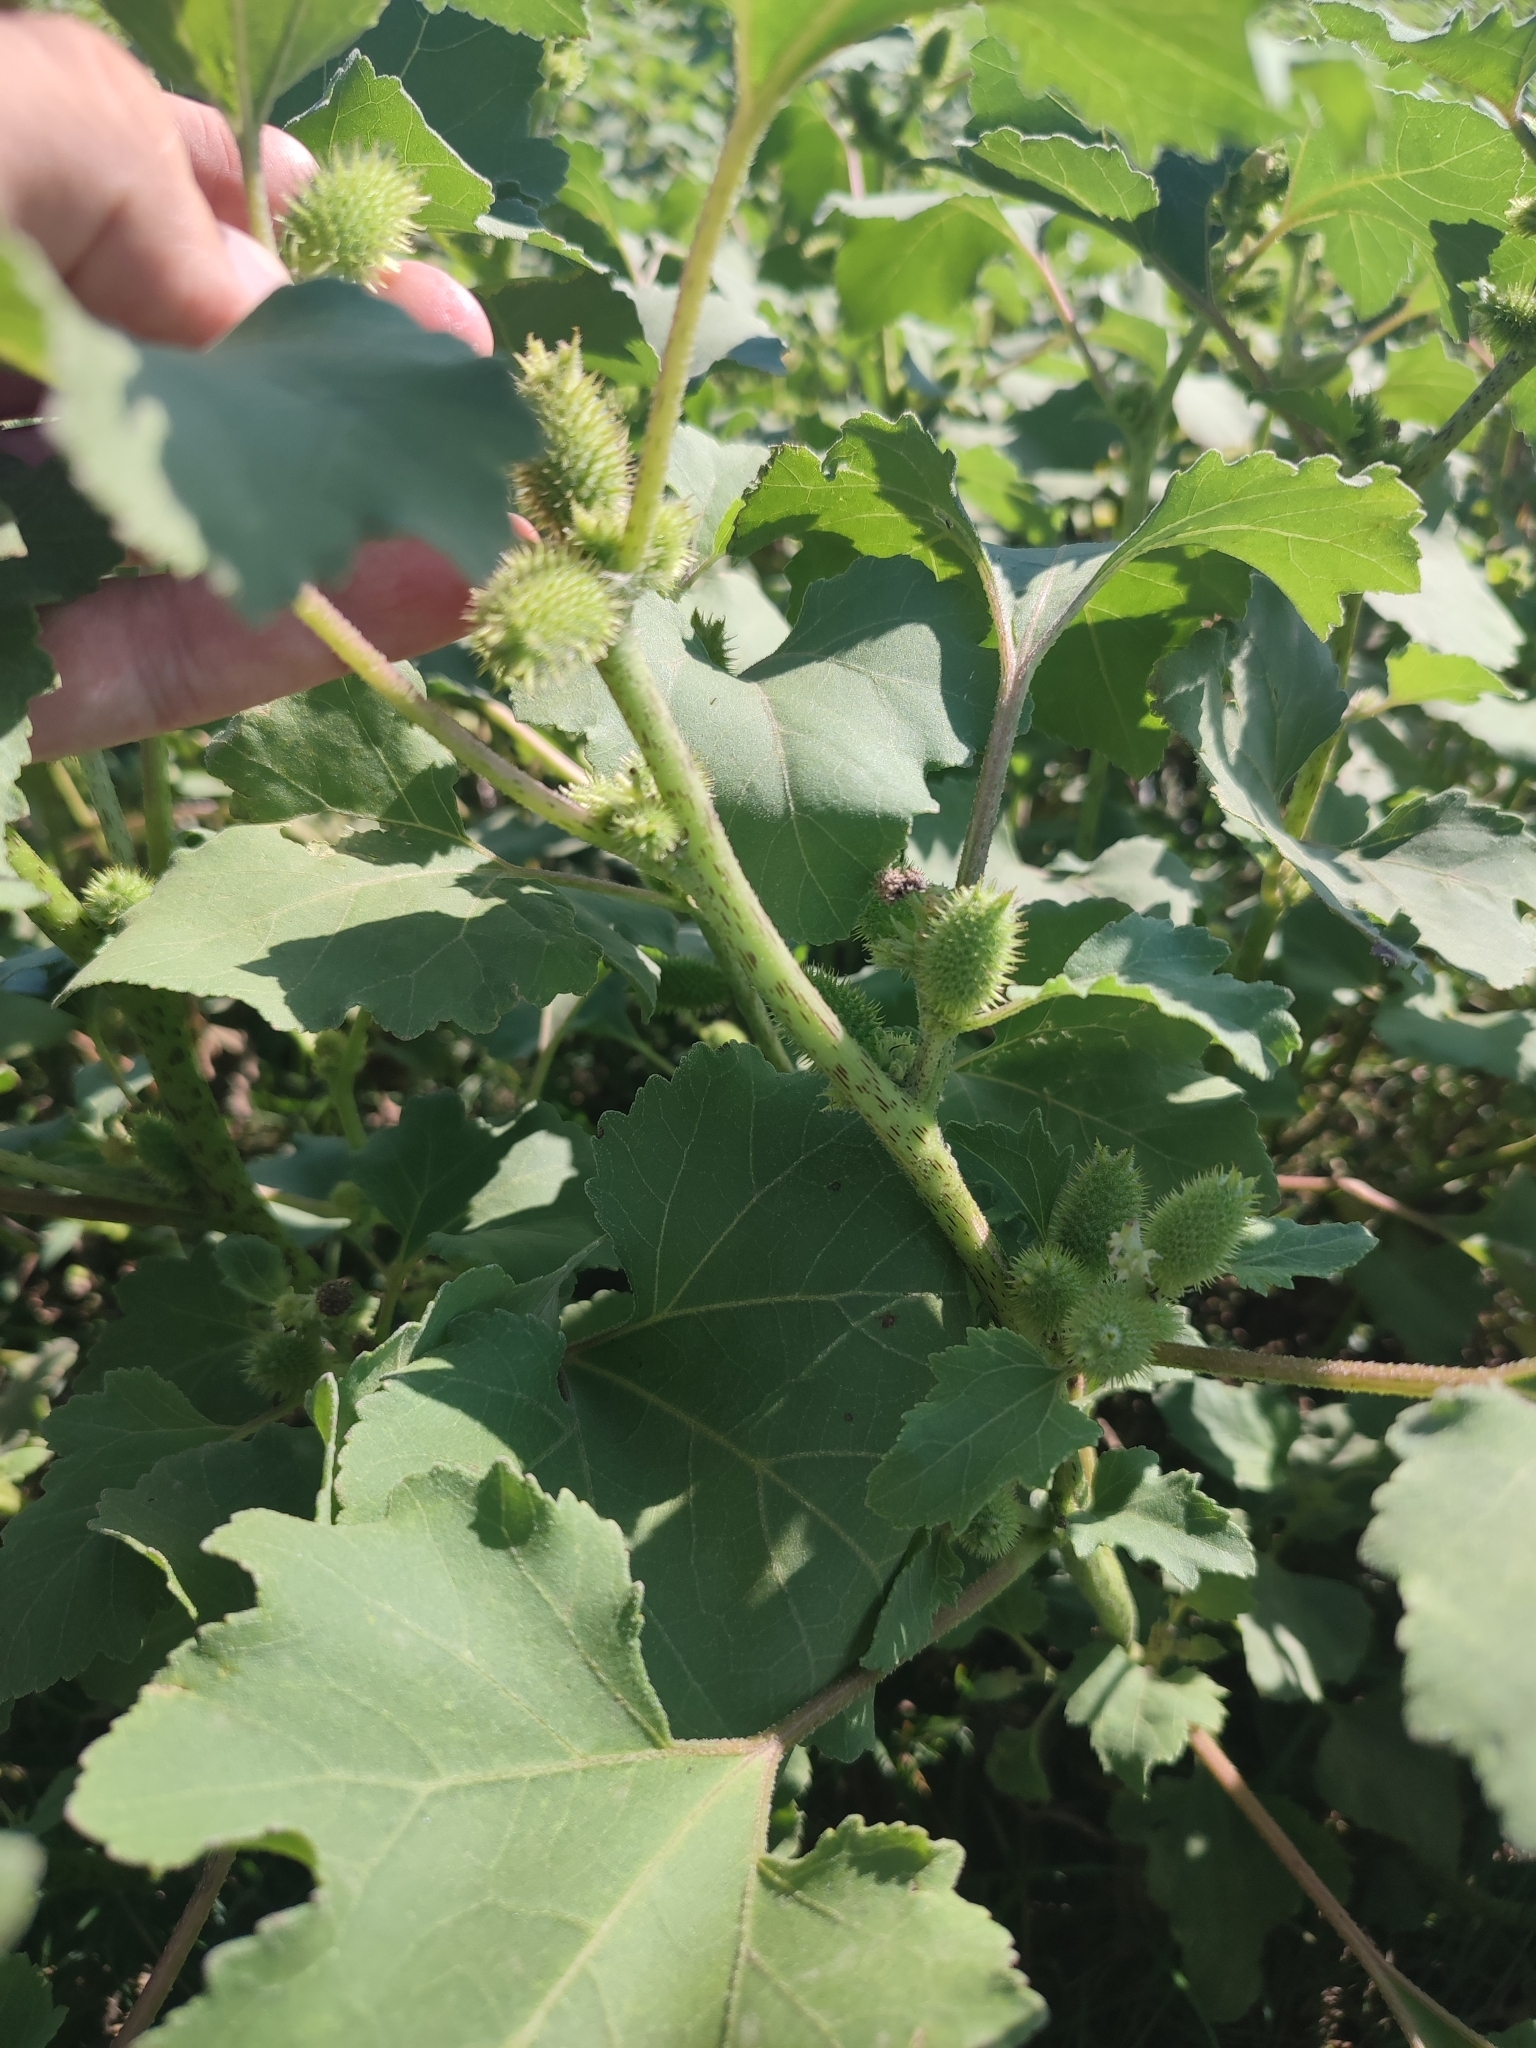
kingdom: Plantae
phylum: Tracheophyta
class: Magnoliopsida
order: Asterales
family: Asteraceae
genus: Xanthium
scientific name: Xanthium orientale
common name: Californian burr
